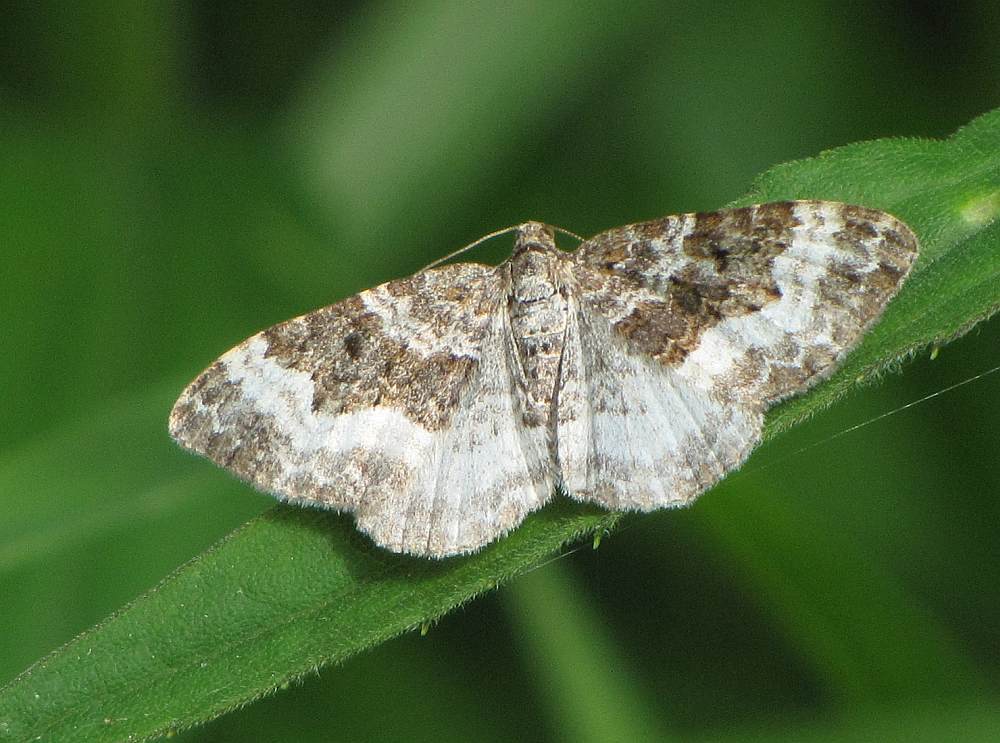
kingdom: Animalia
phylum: Arthropoda
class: Insecta
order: Lepidoptera
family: Geometridae
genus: Epirrhoe
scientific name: Epirrhoe alternata
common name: Common carpet
